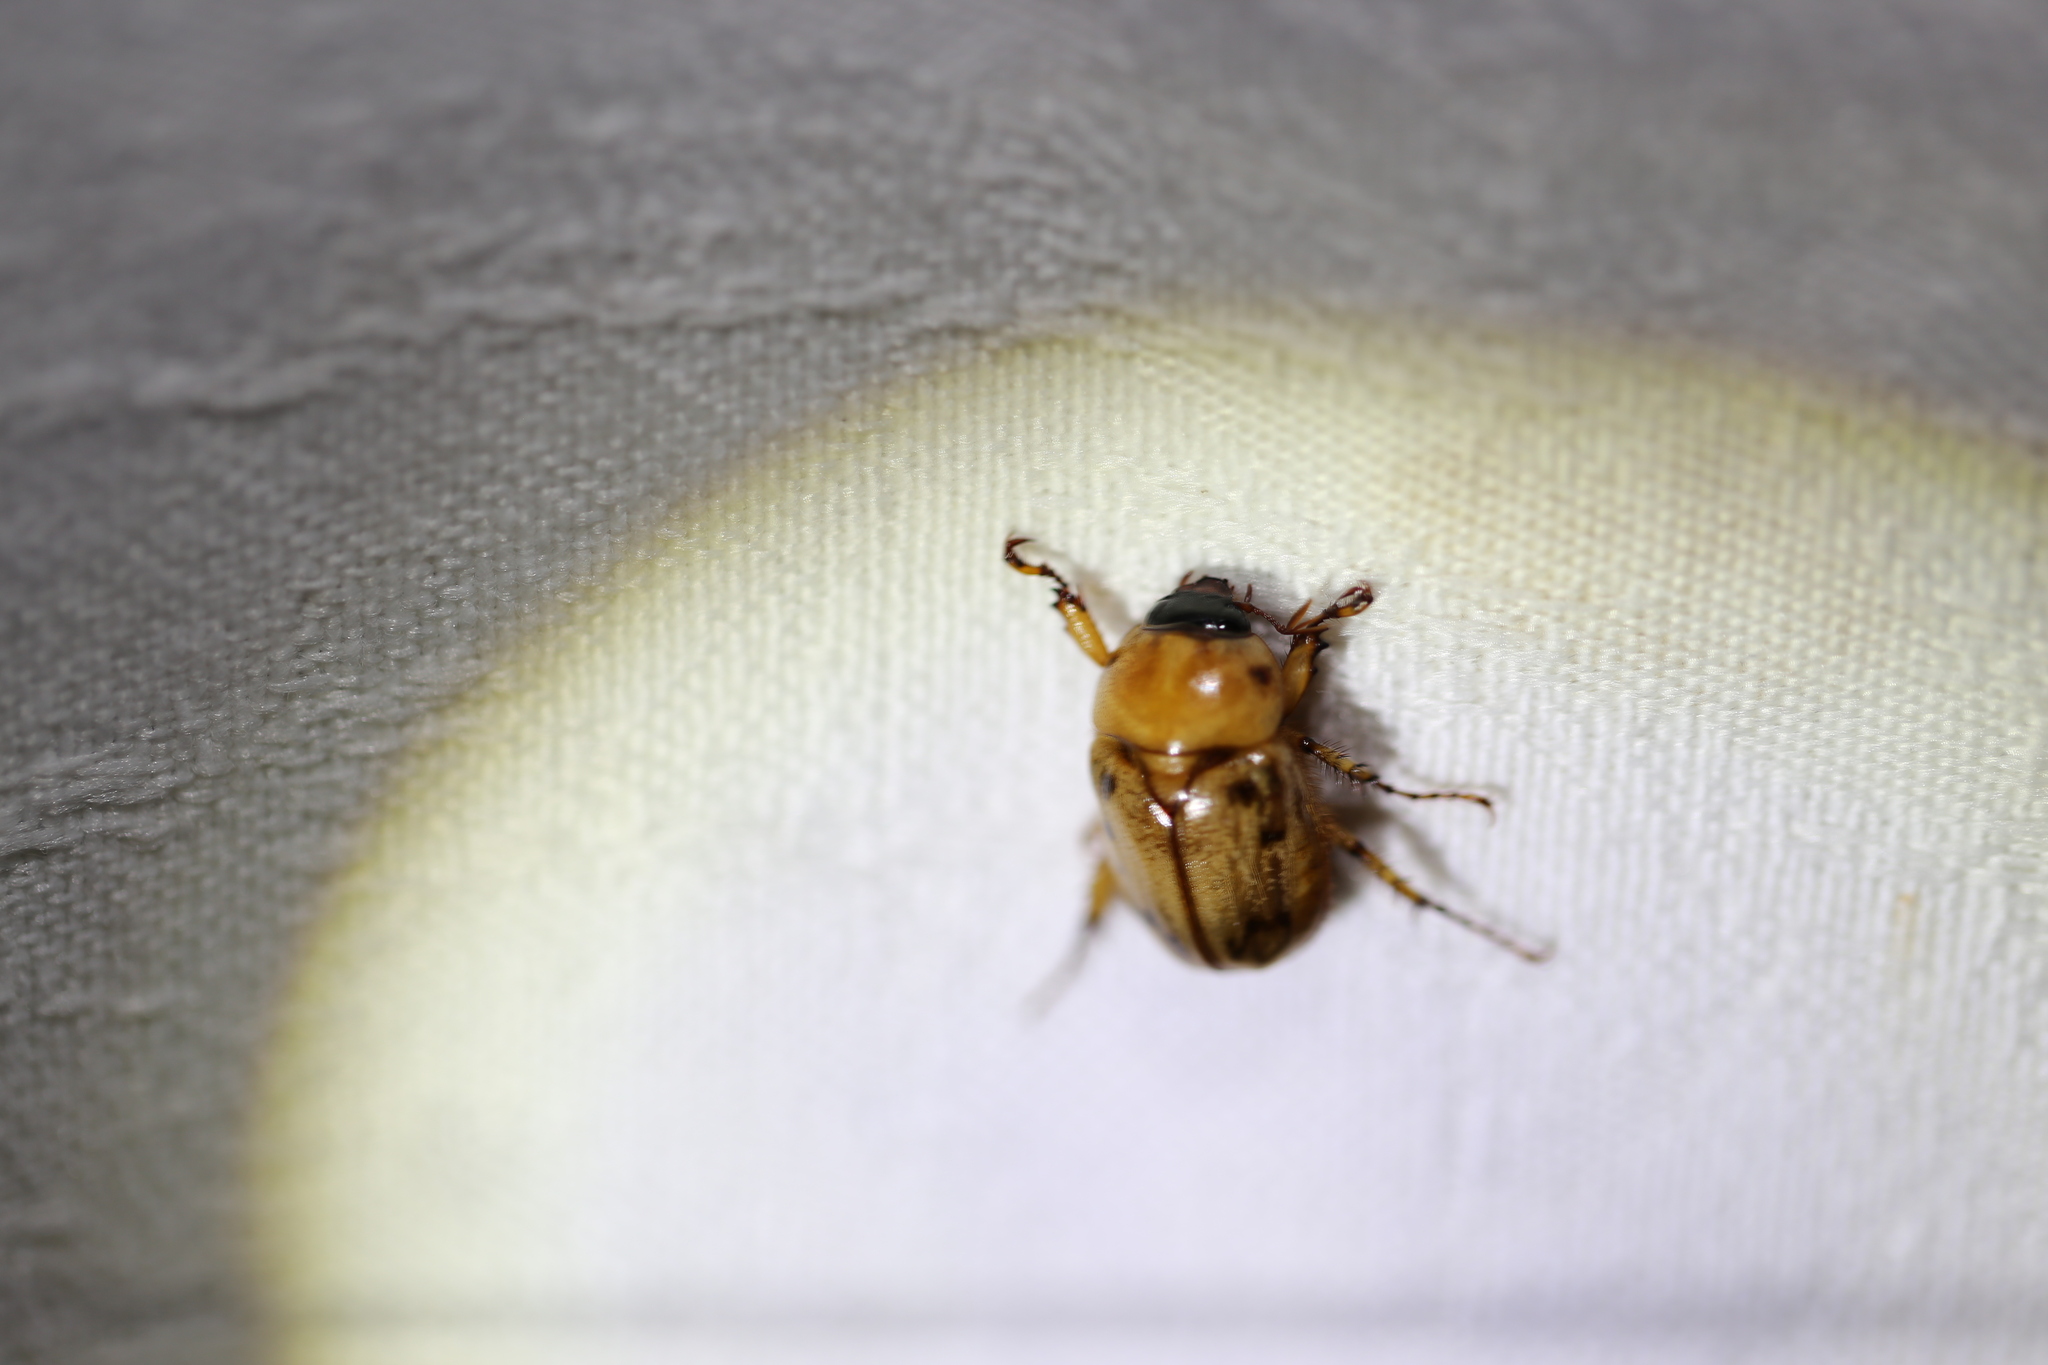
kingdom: Animalia
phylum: Arthropoda
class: Insecta
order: Coleoptera
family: Scarabaeidae
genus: Cyclocephala
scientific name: Cyclocephala signaticollis
